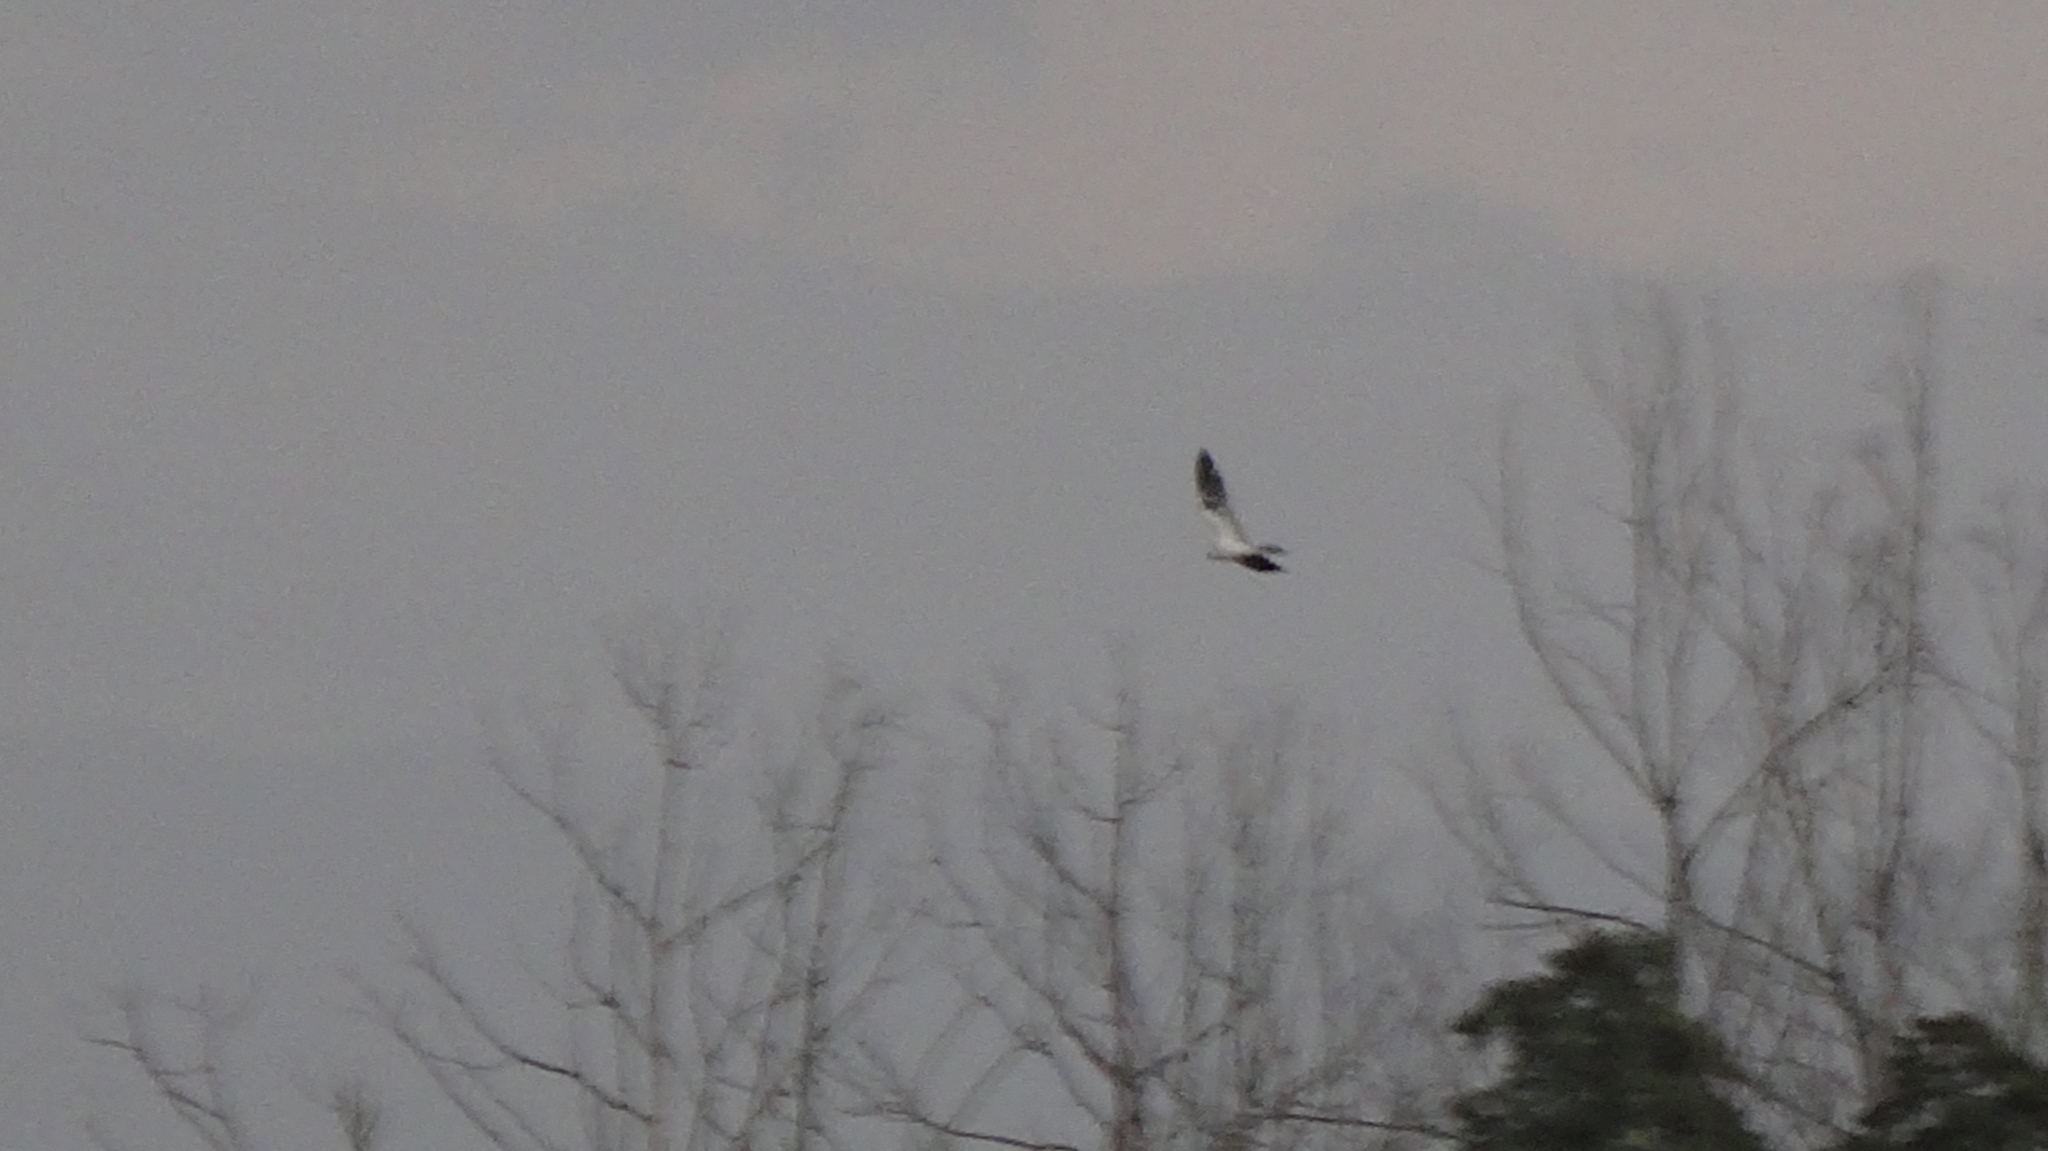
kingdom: Animalia
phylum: Chordata
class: Aves
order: Accipitriformes
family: Accipitridae
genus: Elanus
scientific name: Elanus leucurus
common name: White-tailed kite
